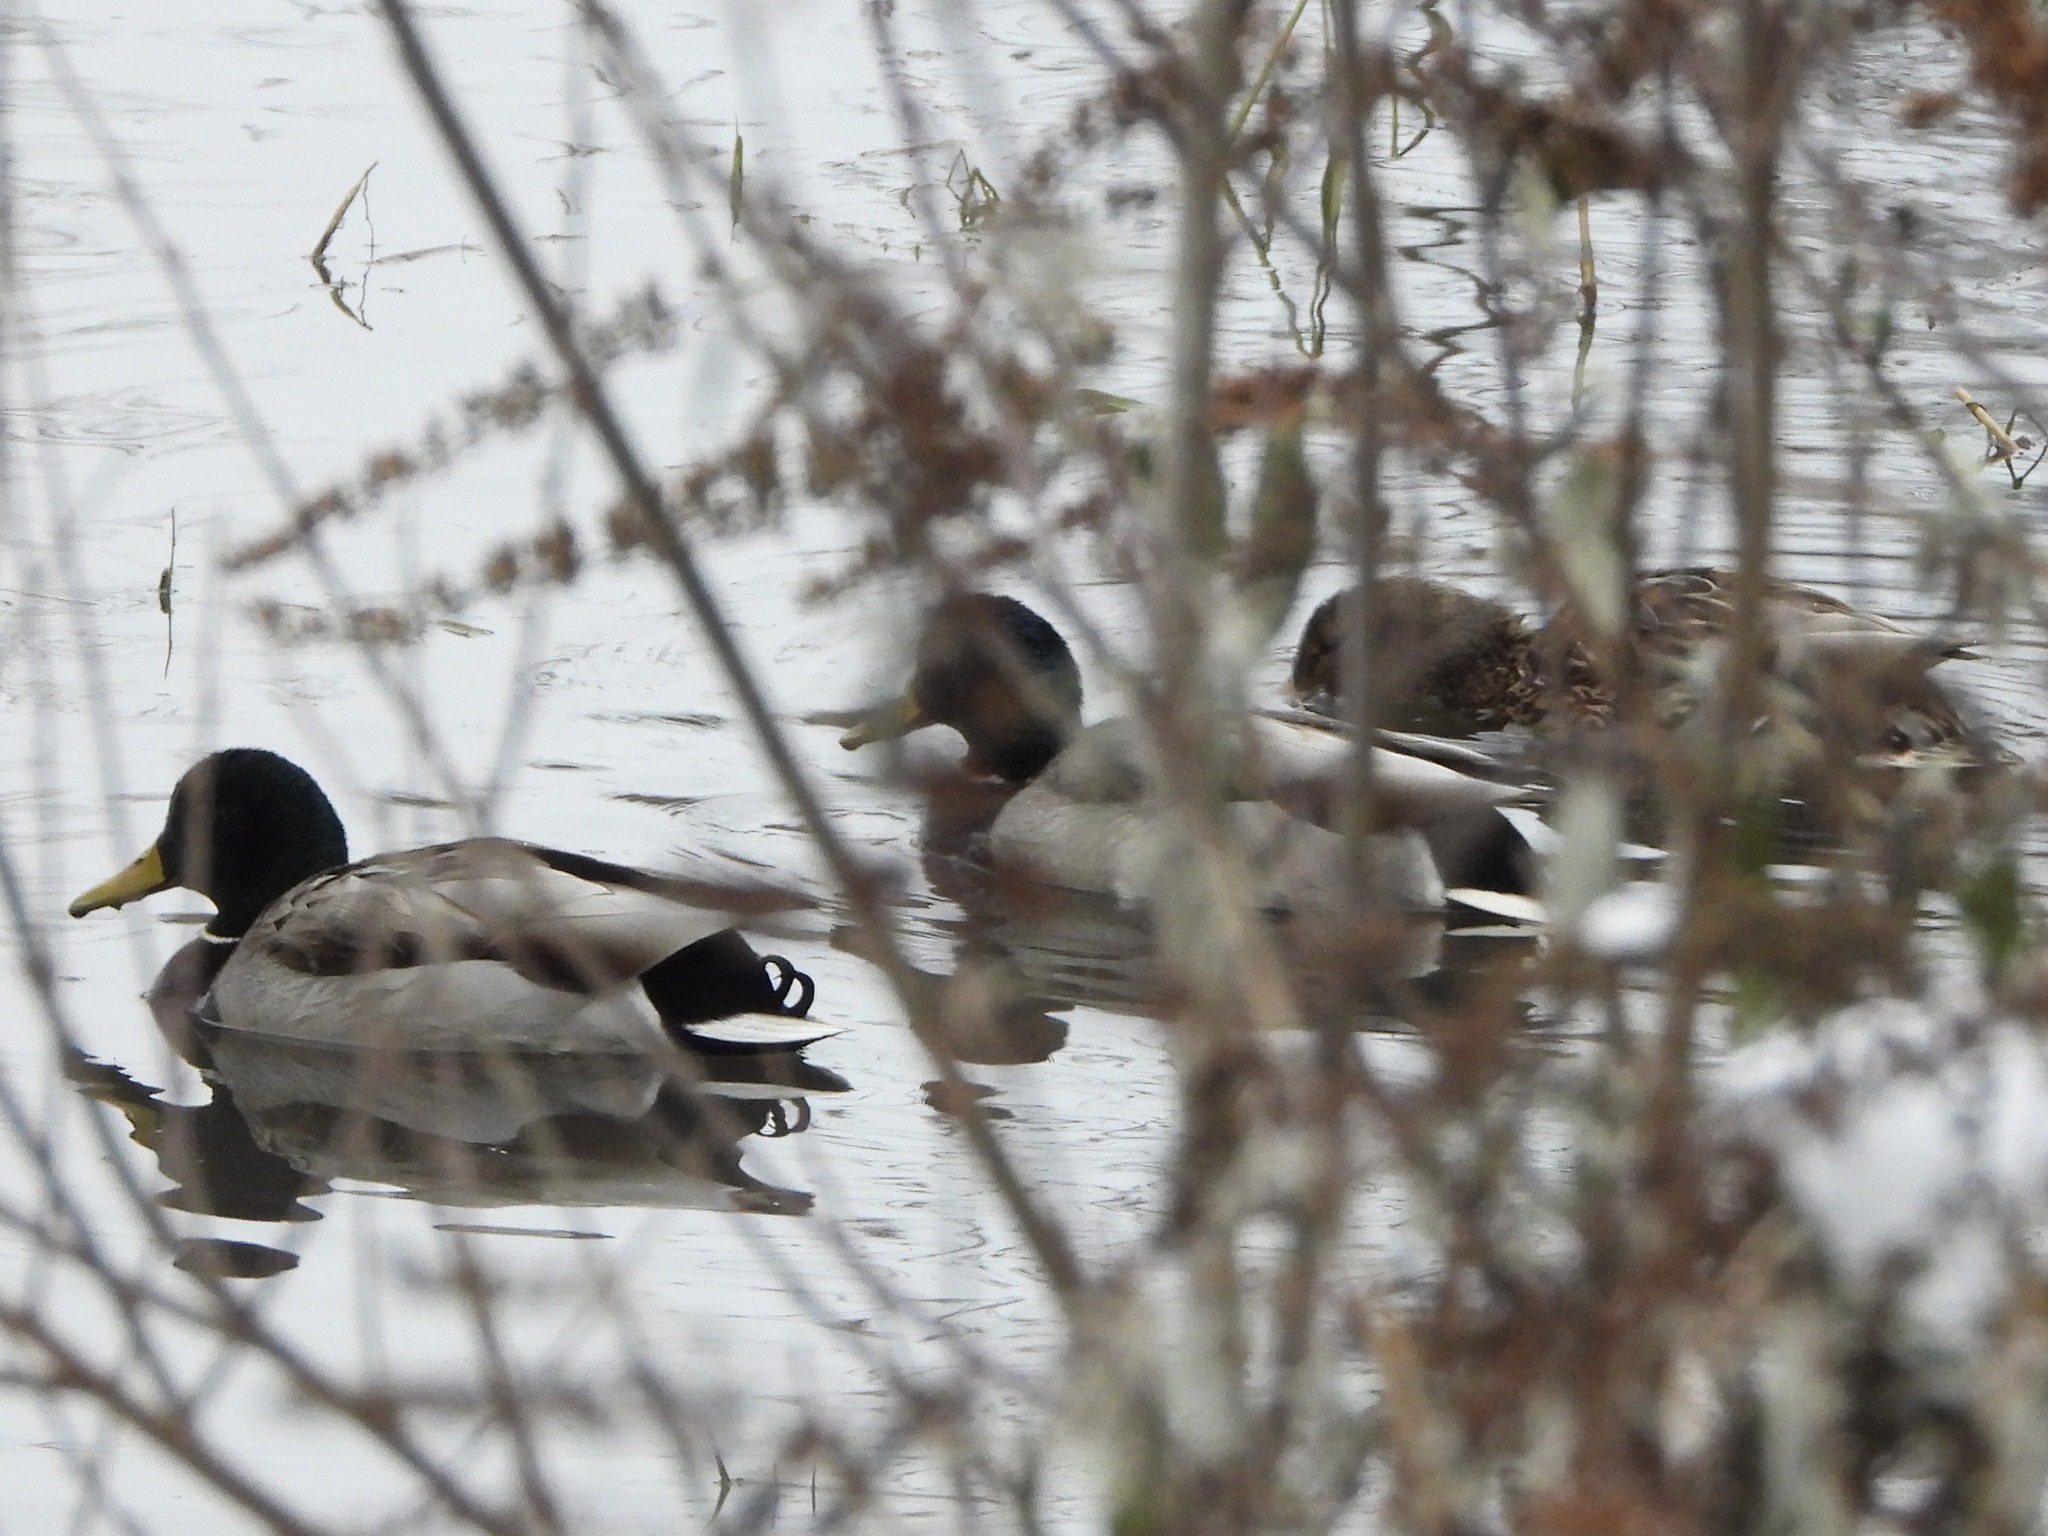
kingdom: Animalia
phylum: Chordata
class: Aves
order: Anseriformes
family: Anatidae
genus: Anas
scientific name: Anas platyrhynchos
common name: Mallard
